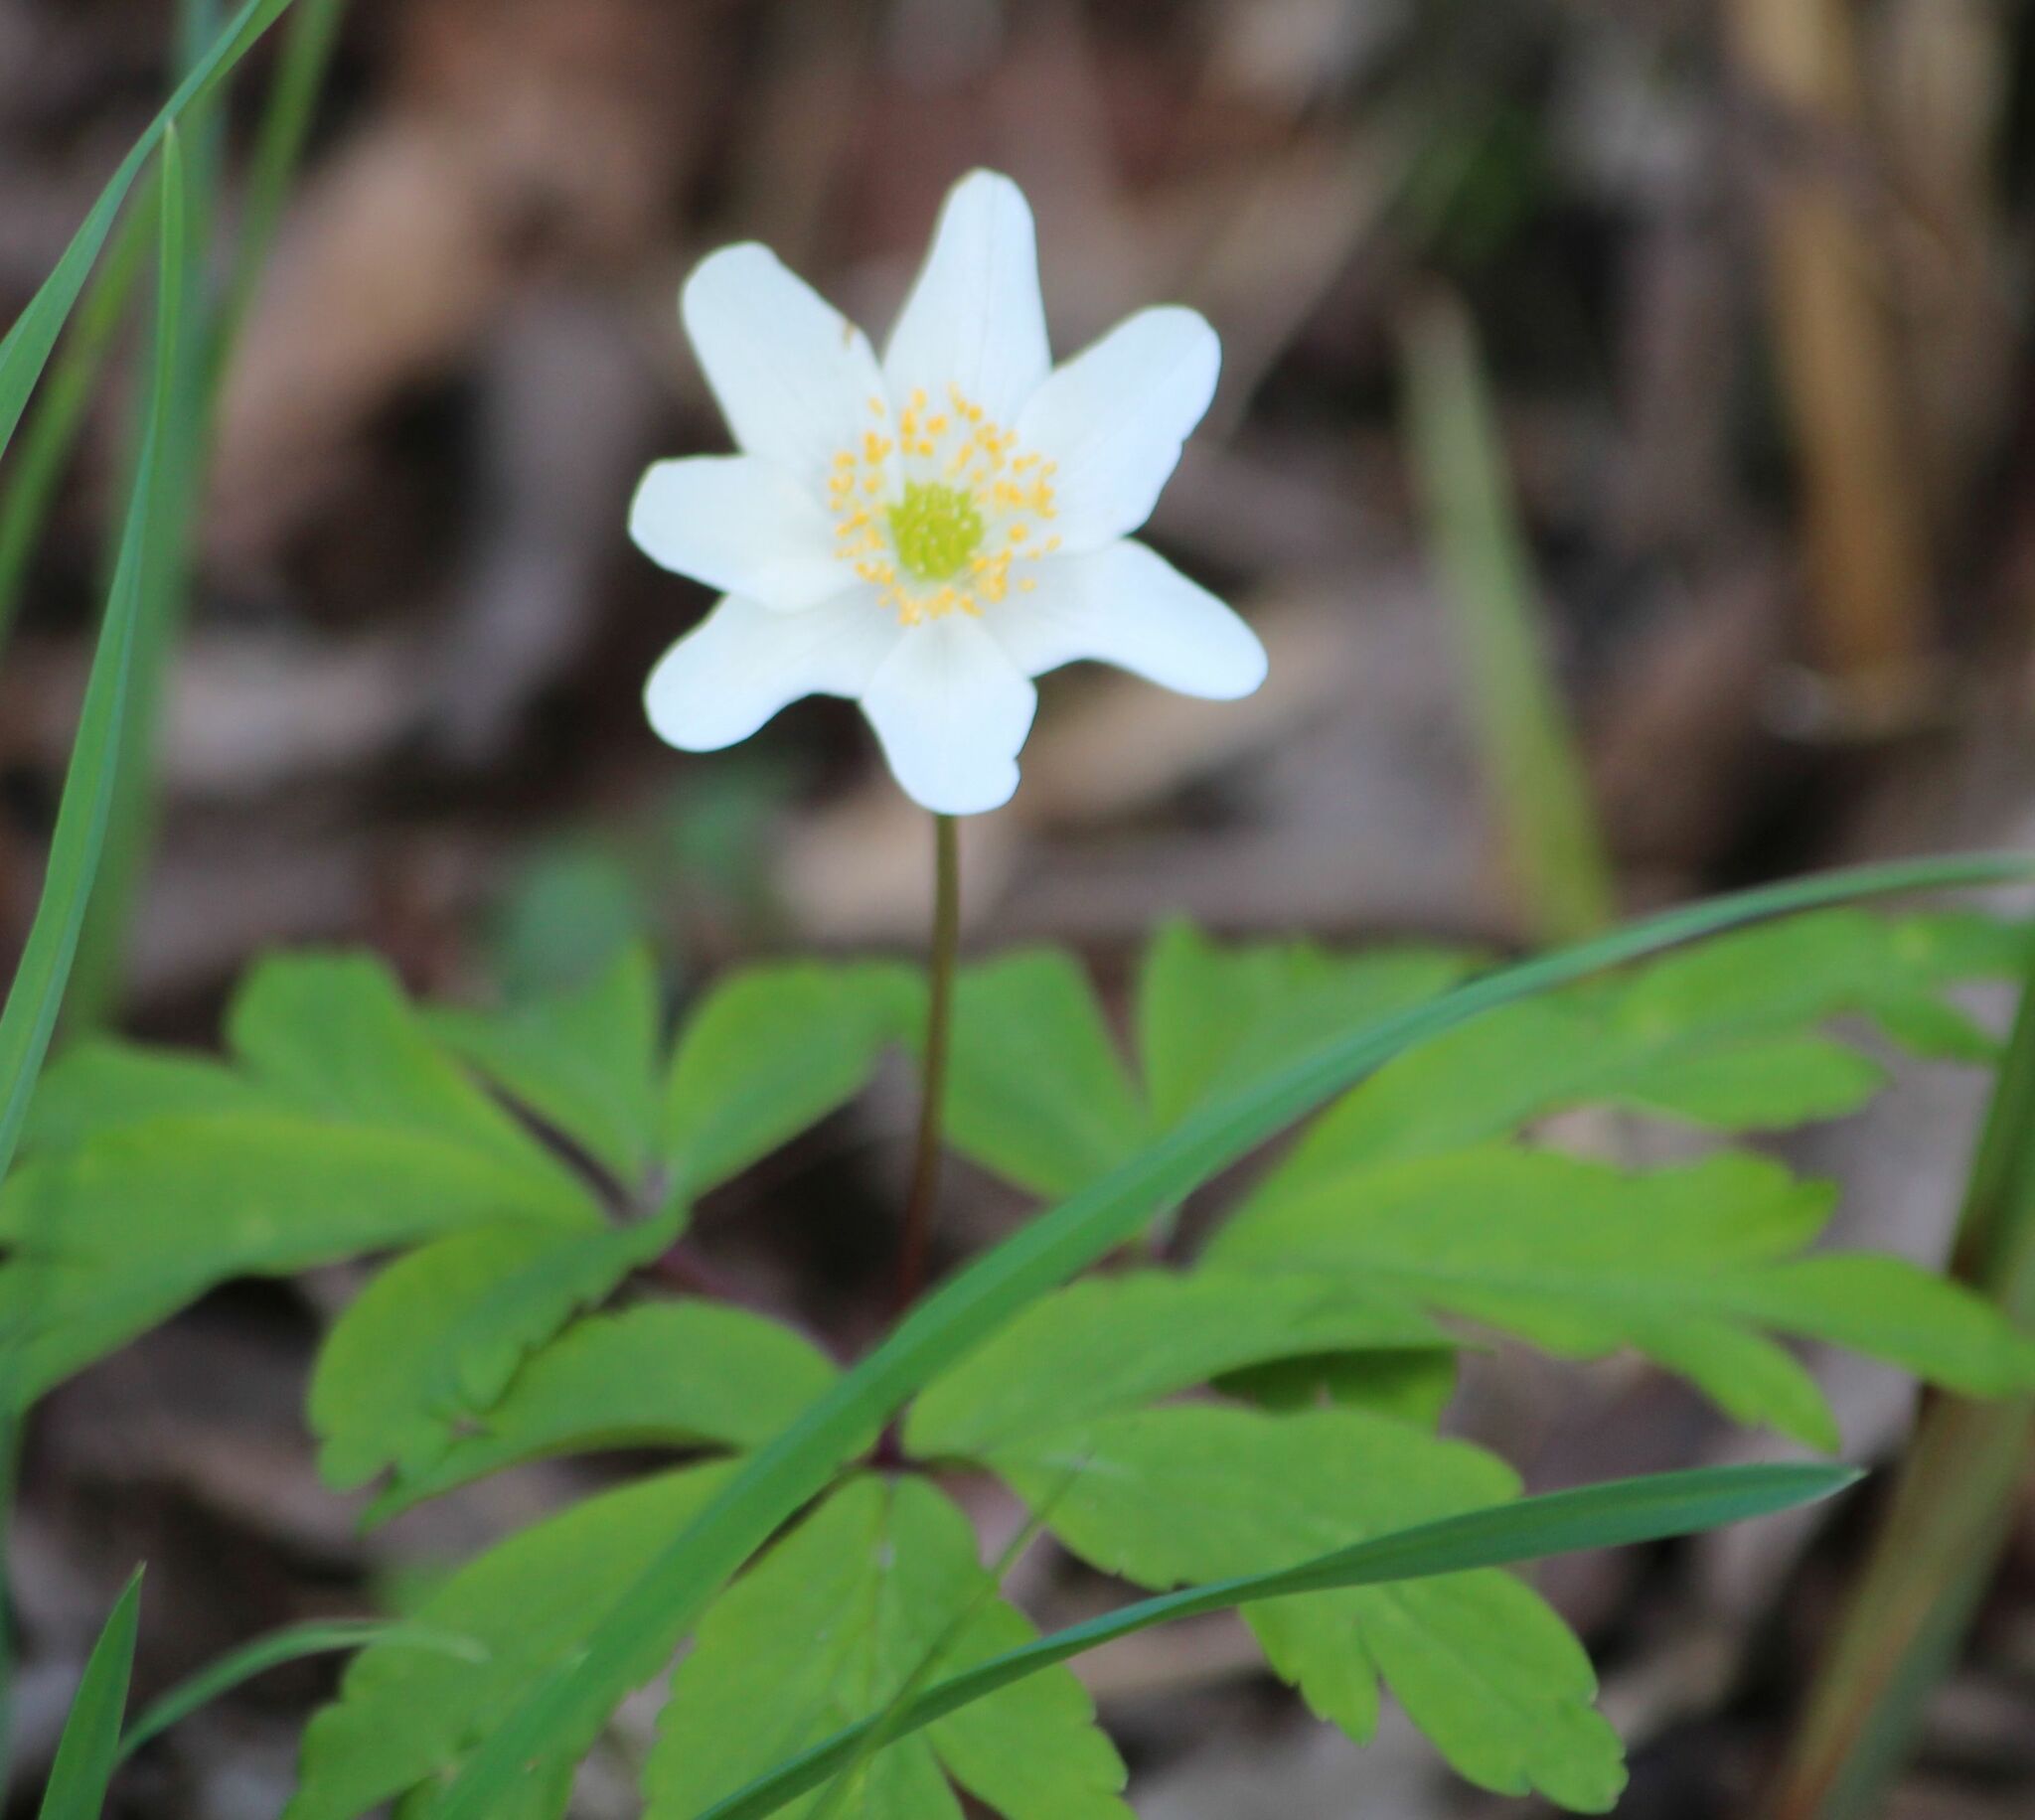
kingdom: Plantae
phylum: Tracheophyta
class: Magnoliopsida
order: Ranunculales
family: Ranunculaceae
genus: Anemone
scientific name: Anemone nemorosa
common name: Wood anemone
